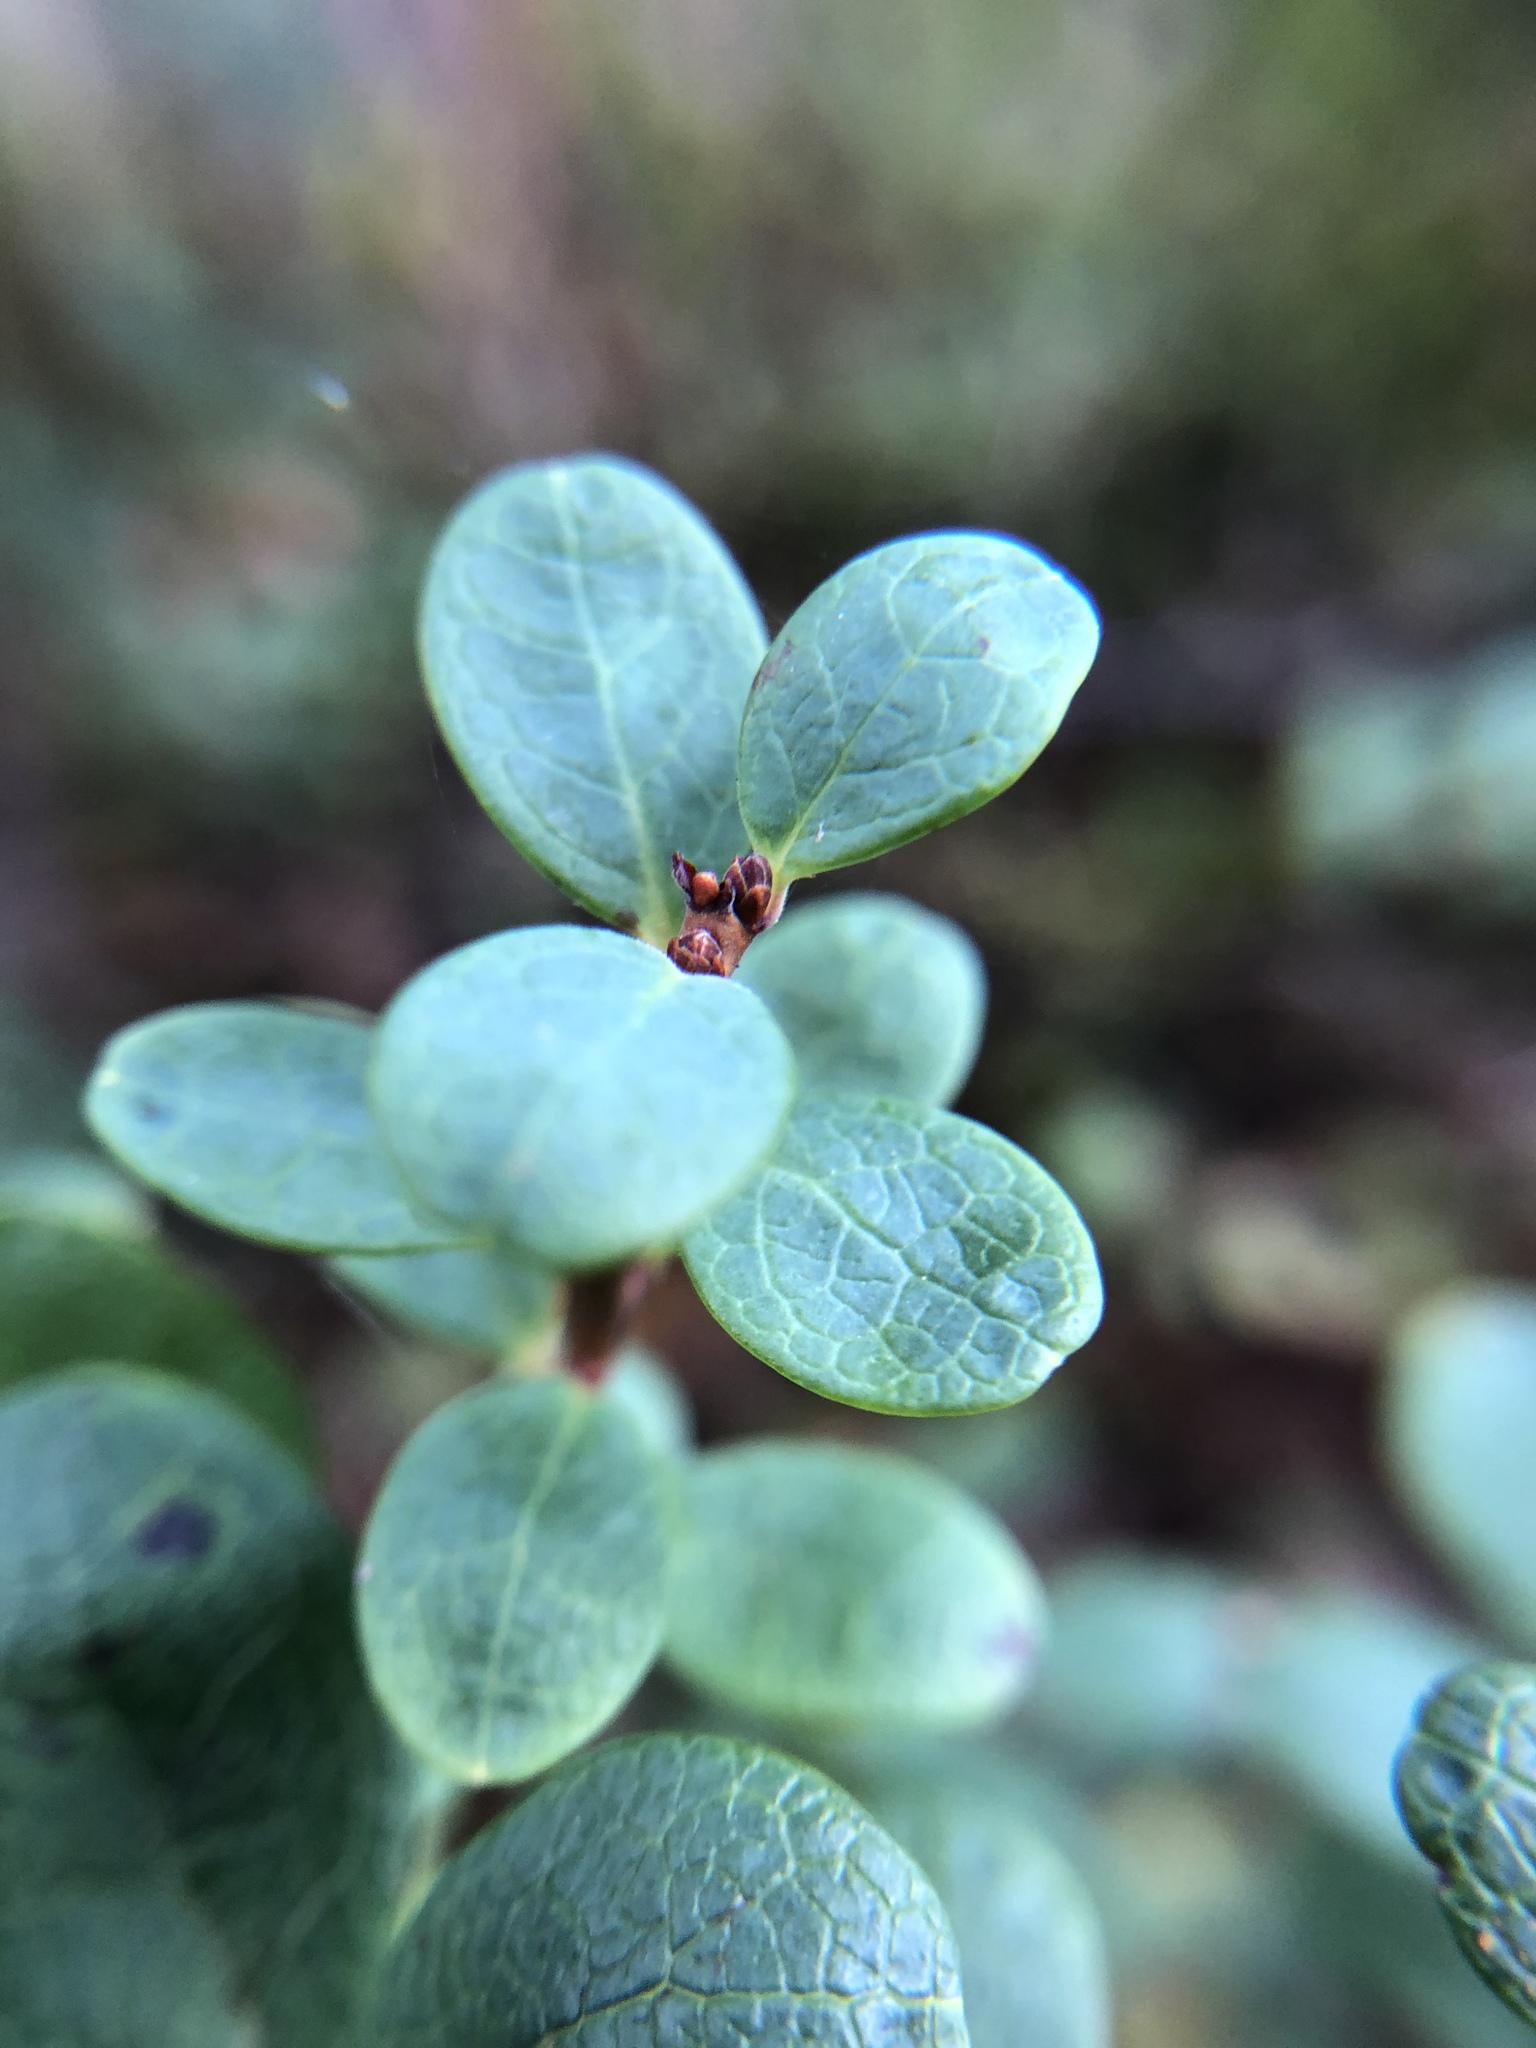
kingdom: Plantae
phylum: Tracheophyta
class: Magnoliopsida
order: Ericales
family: Ericaceae
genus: Vaccinium
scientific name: Vaccinium uliginosum
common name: Bog bilberry
